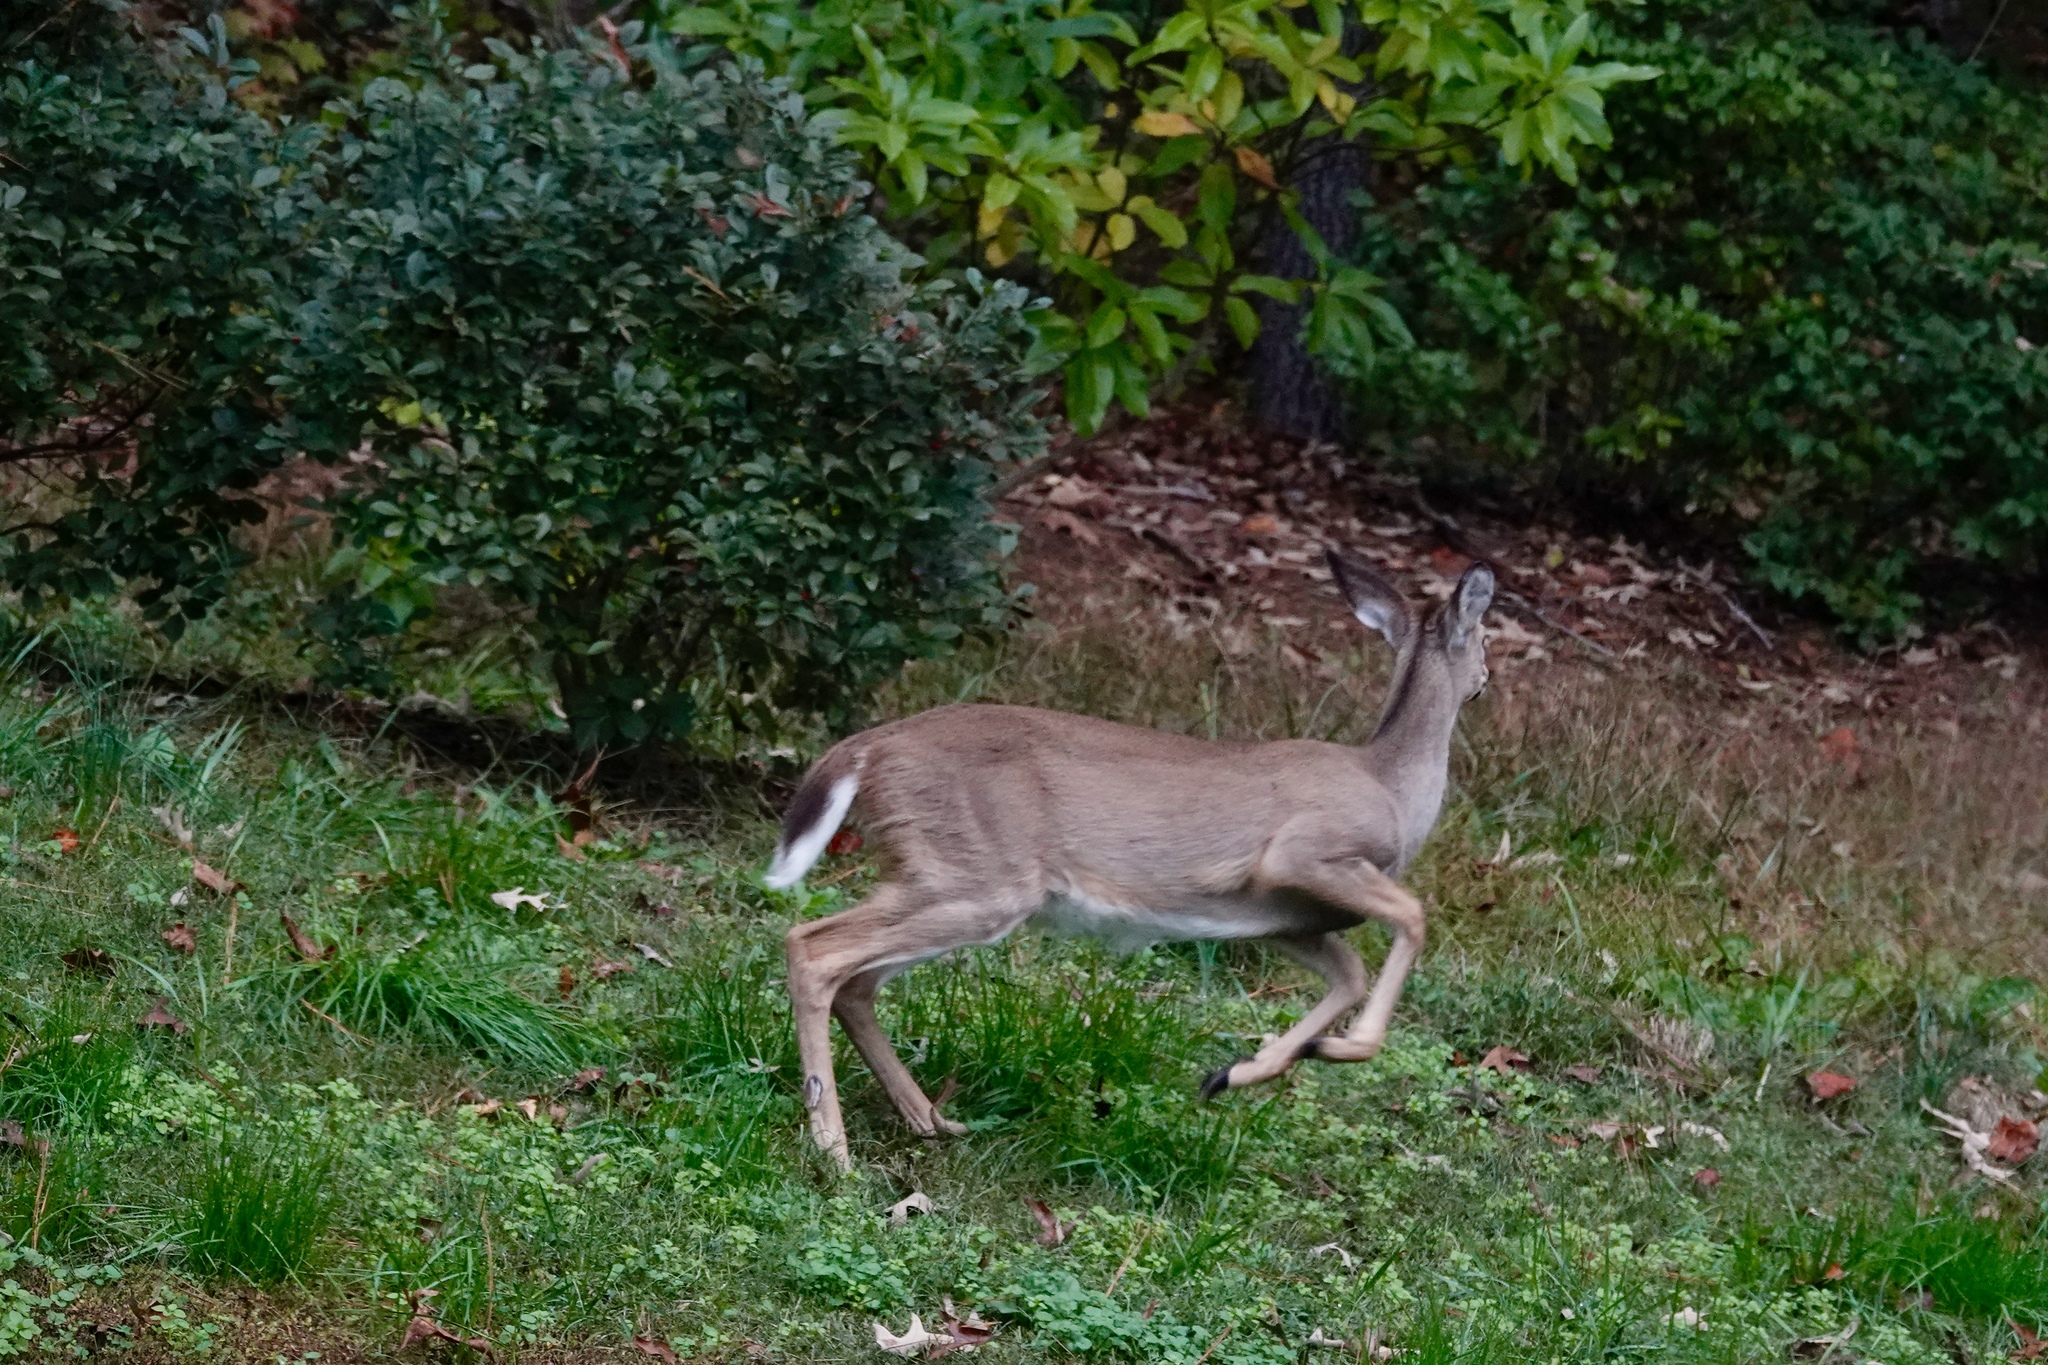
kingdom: Animalia
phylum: Chordata
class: Mammalia
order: Artiodactyla
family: Cervidae
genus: Odocoileus
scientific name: Odocoileus virginianus
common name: White-tailed deer
